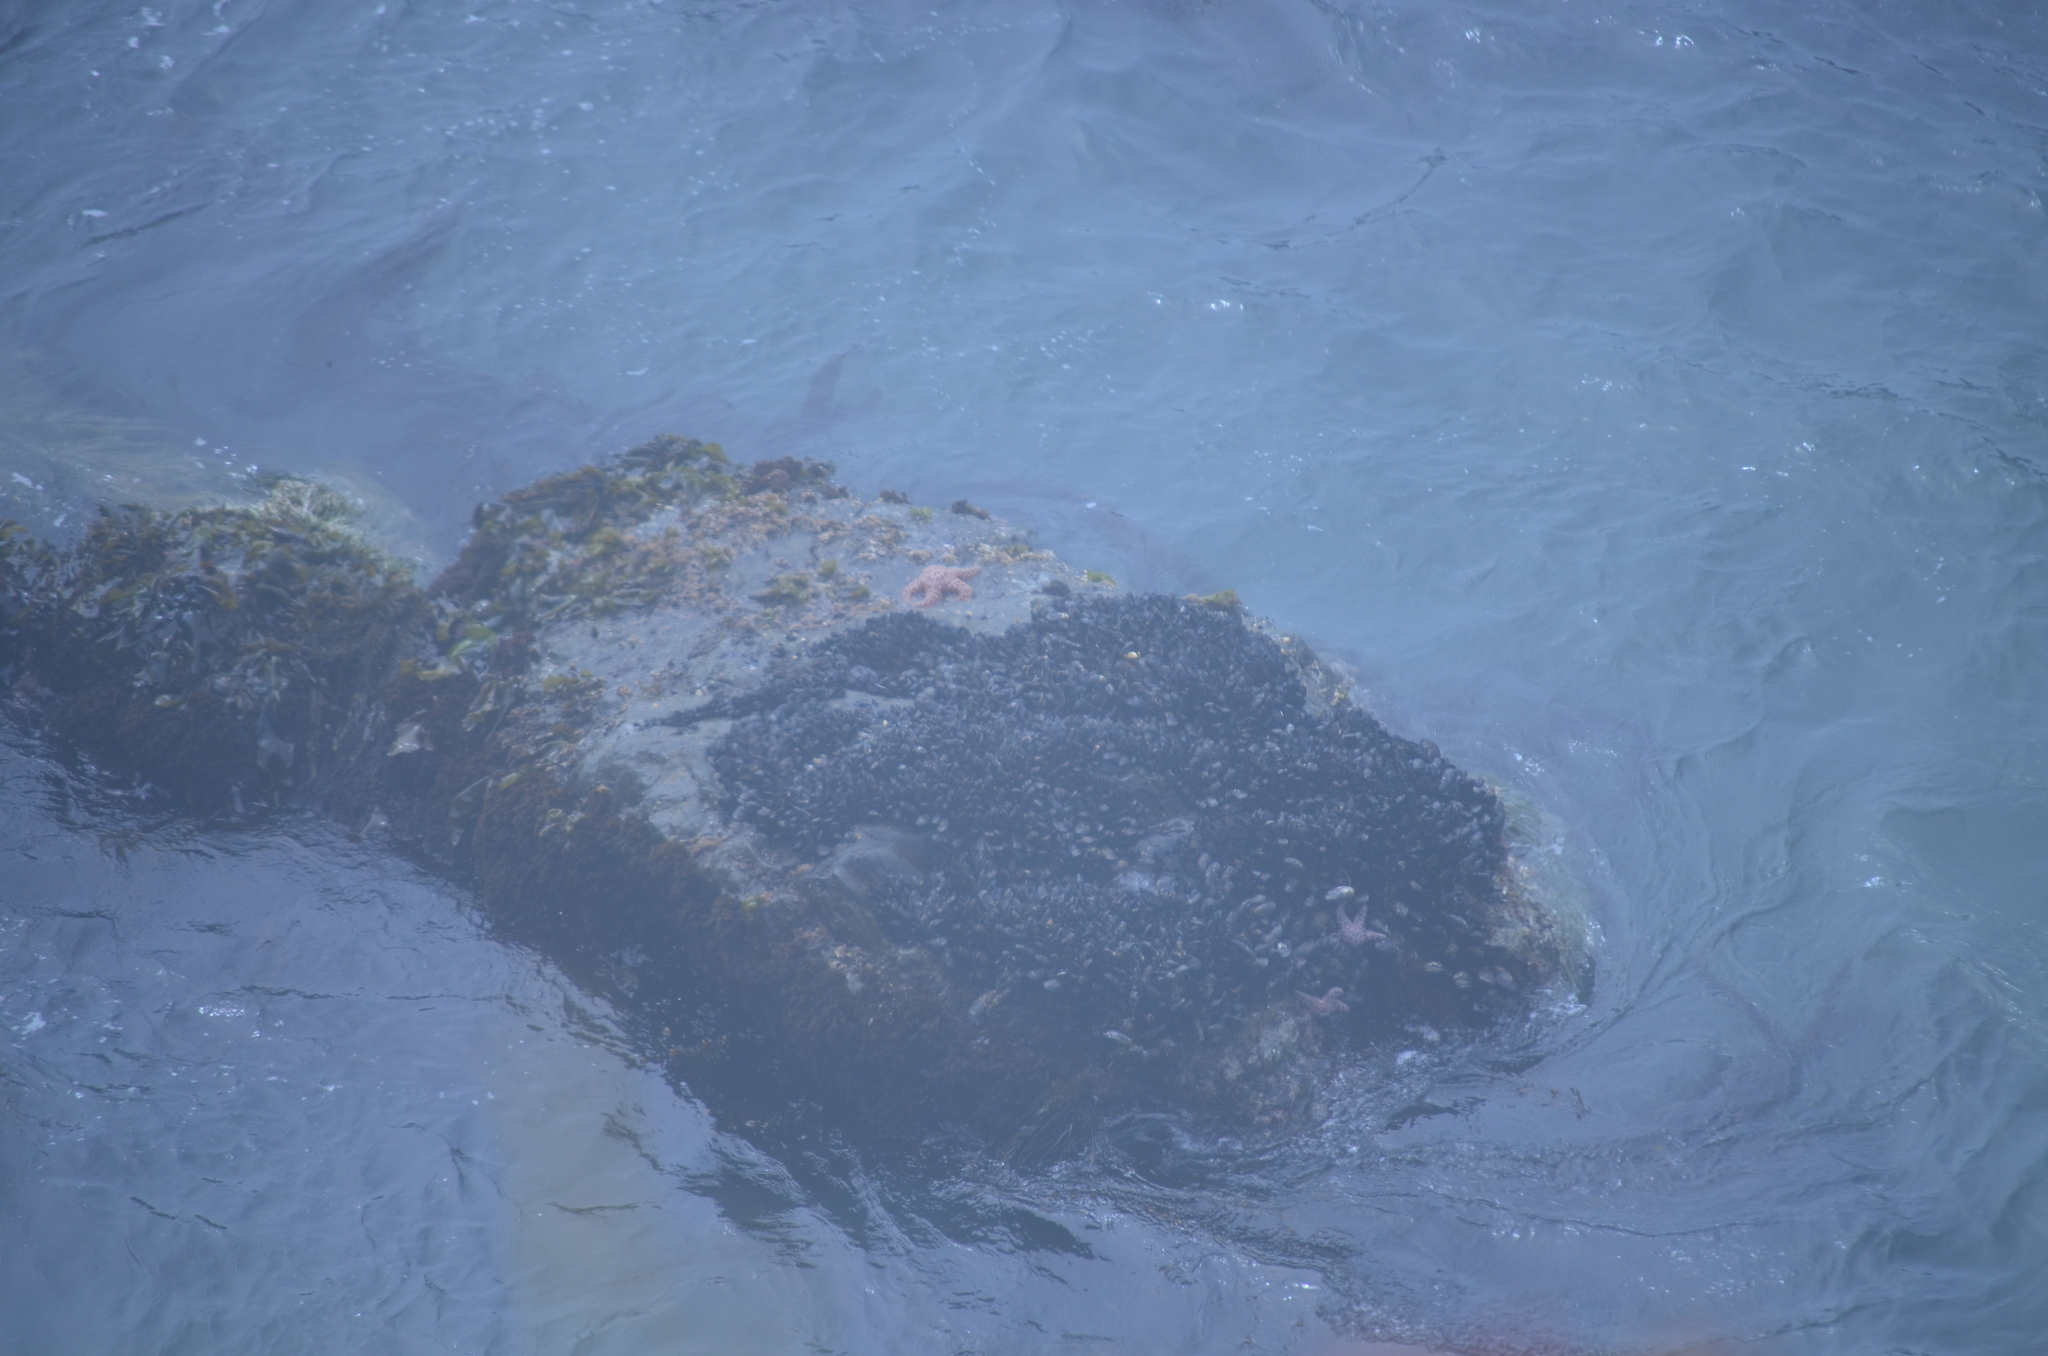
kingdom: Animalia
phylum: Echinodermata
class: Asteroidea
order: Forcipulatida
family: Asteriidae
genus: Pisaster
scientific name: Pisaster ochraceus
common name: Ochre stars
